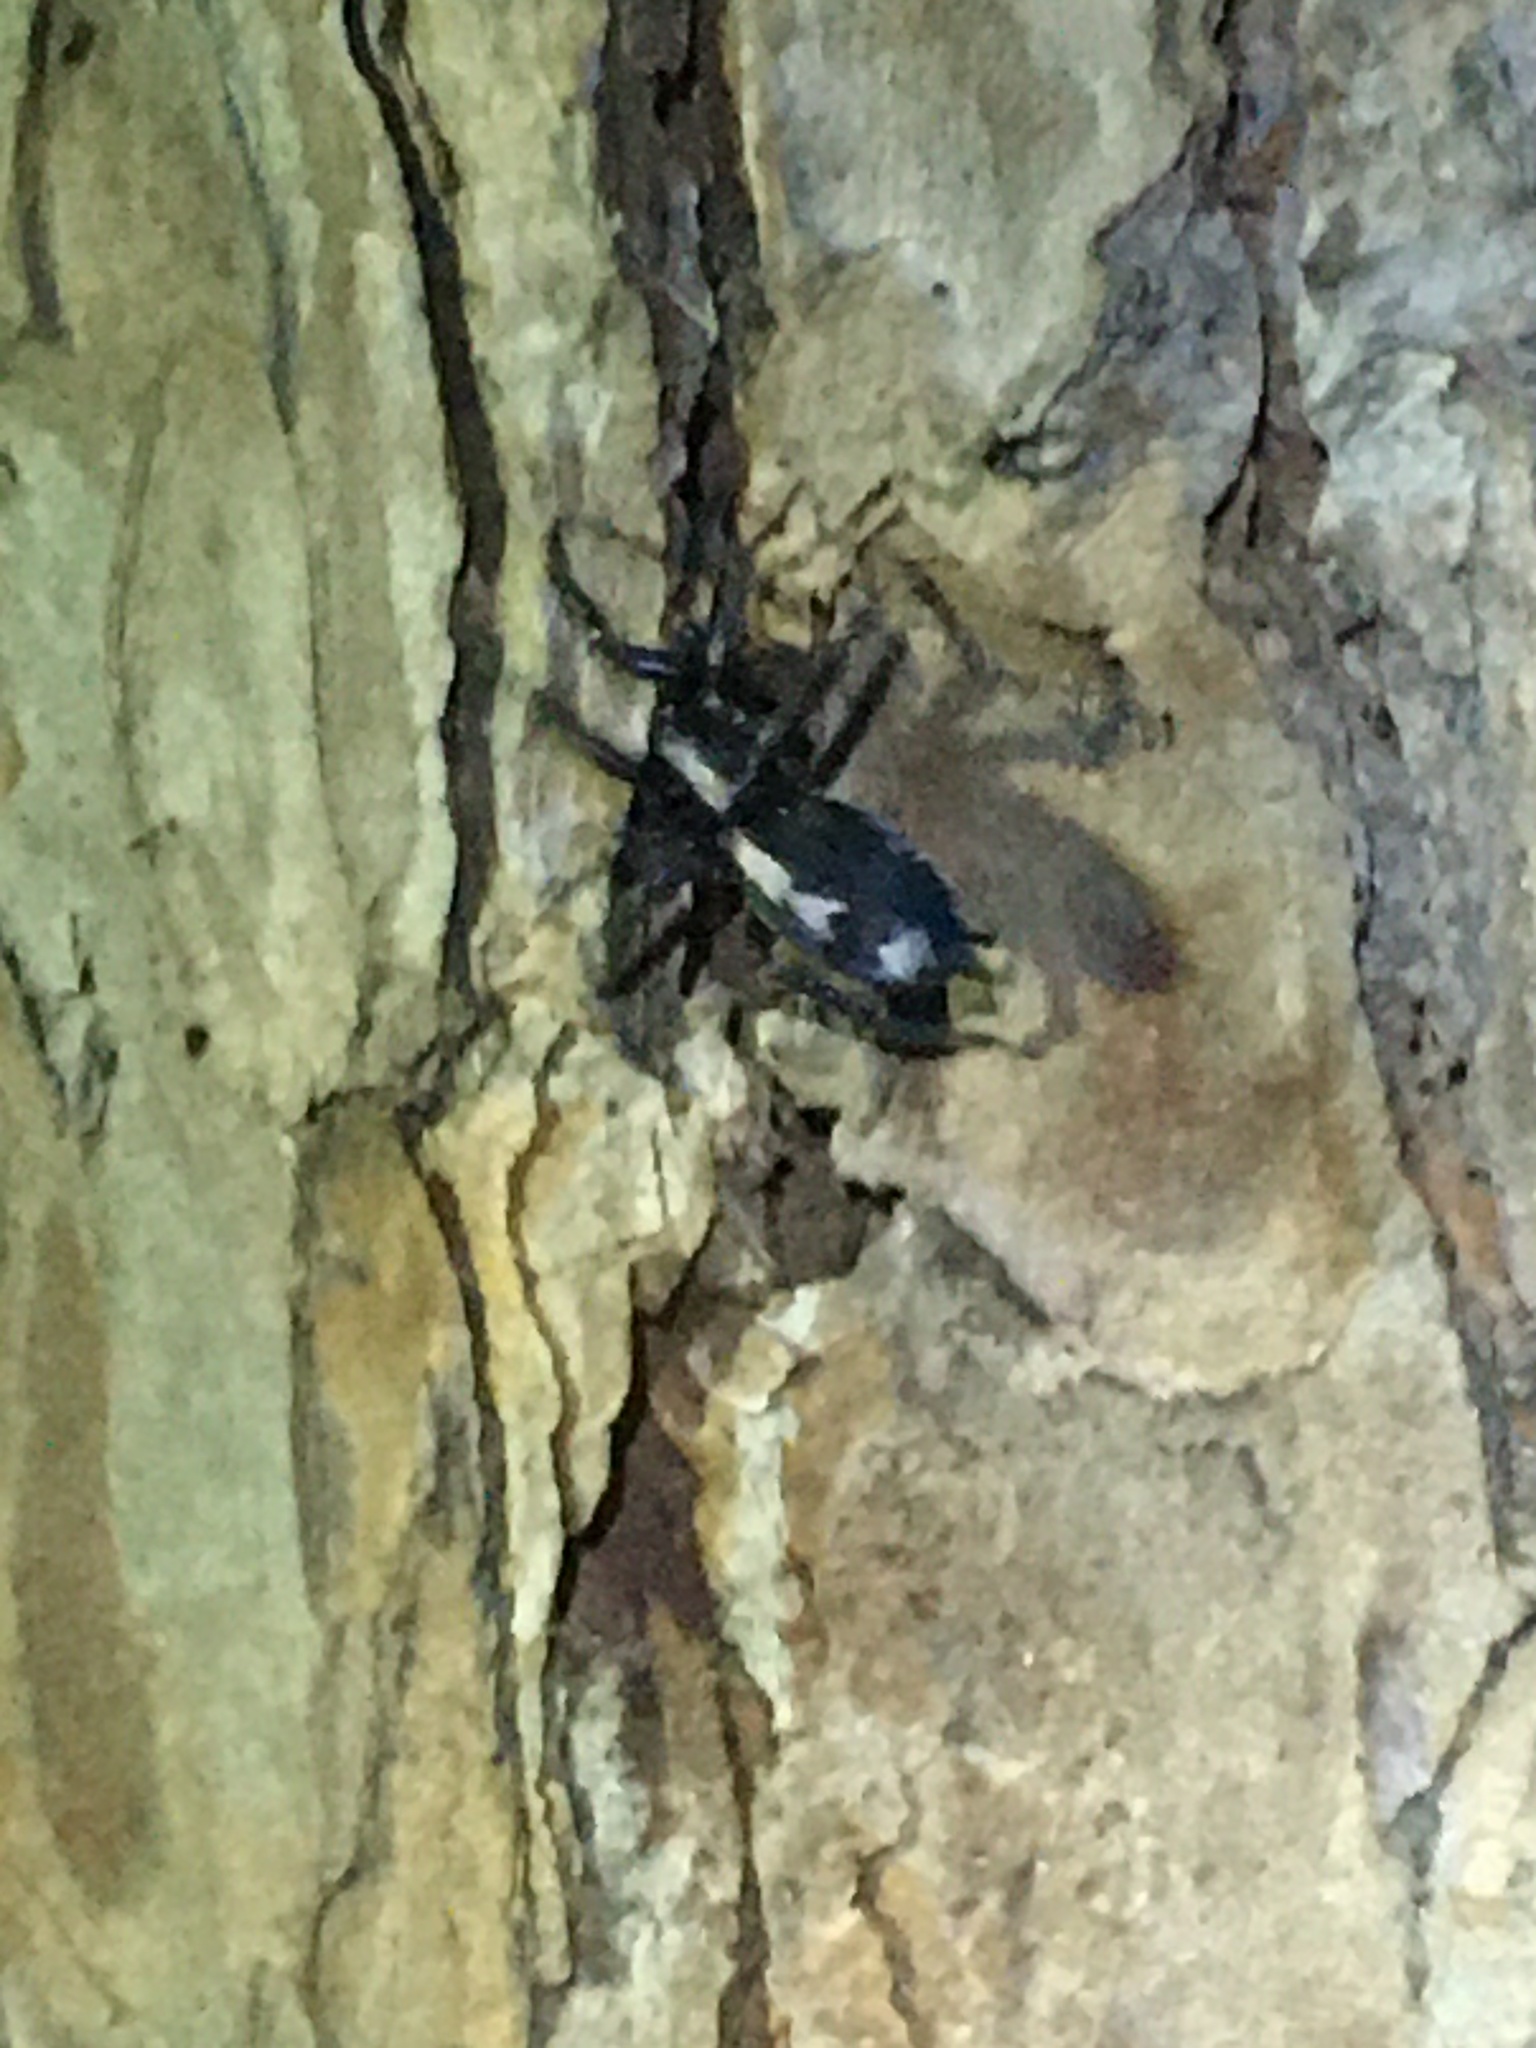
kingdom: Animalia
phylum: Arthropoda
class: Arachnida
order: Araneae
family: Gnaphosidae
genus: Herpyllus
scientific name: Herpyllus ecclesiasticus
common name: Eastern parson spider
